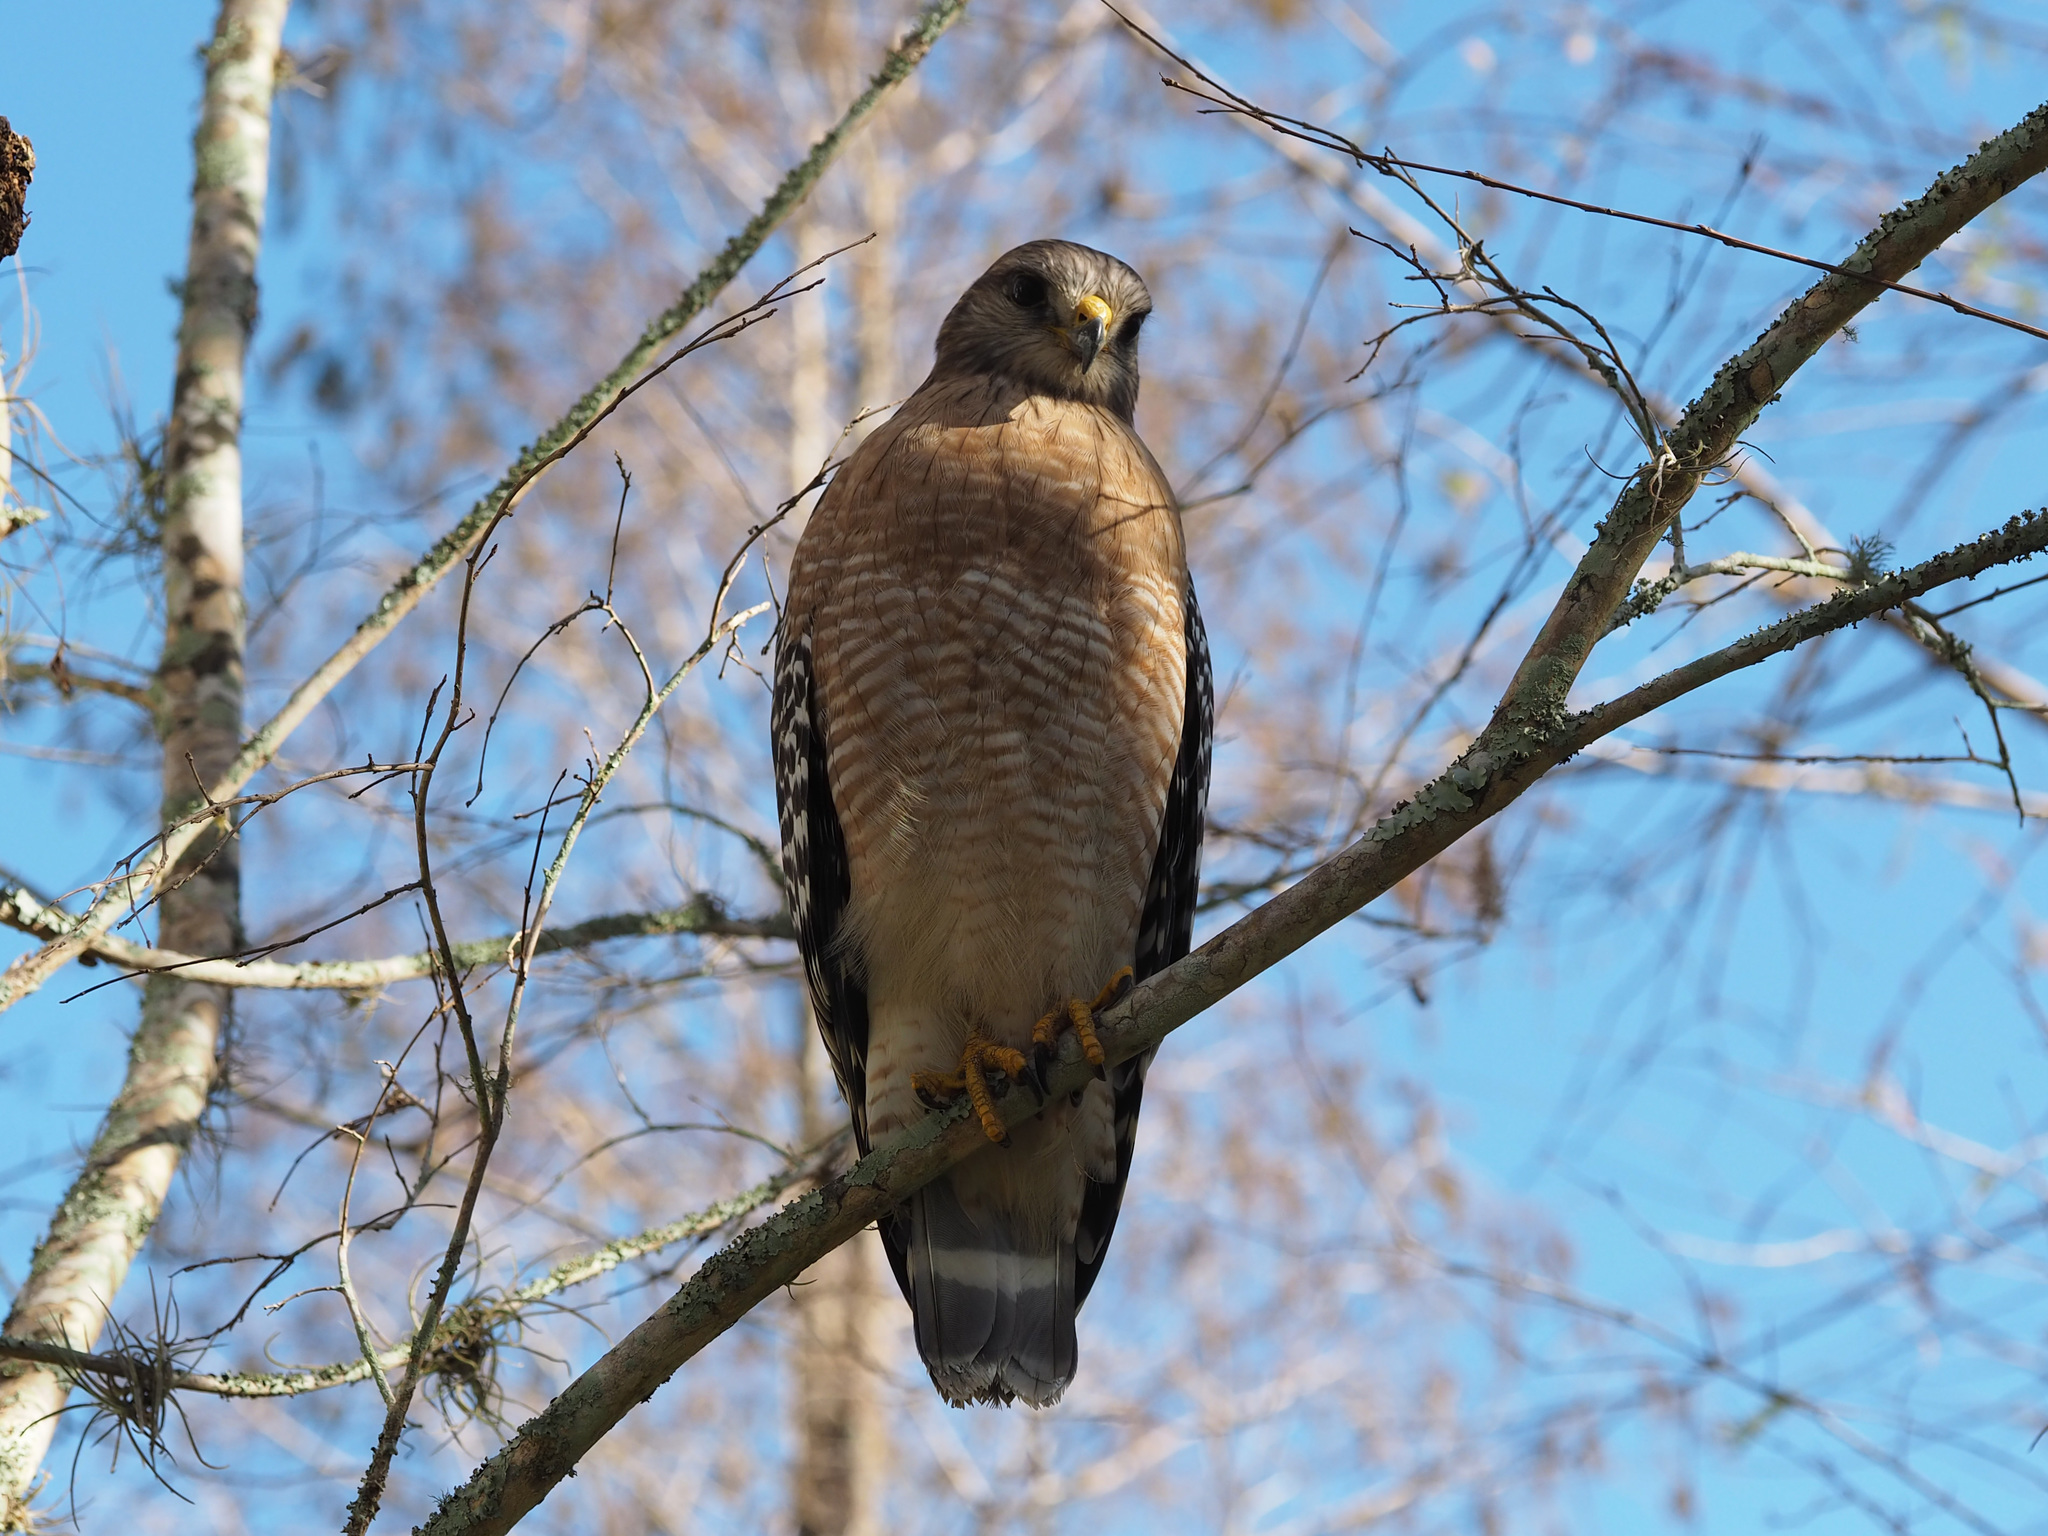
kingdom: Animalia
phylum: Chordata
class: Aves
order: Accipitriformes
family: Accipitridae
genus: Buteo
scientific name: Buteo lineatus
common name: Red-shouldered hawk
